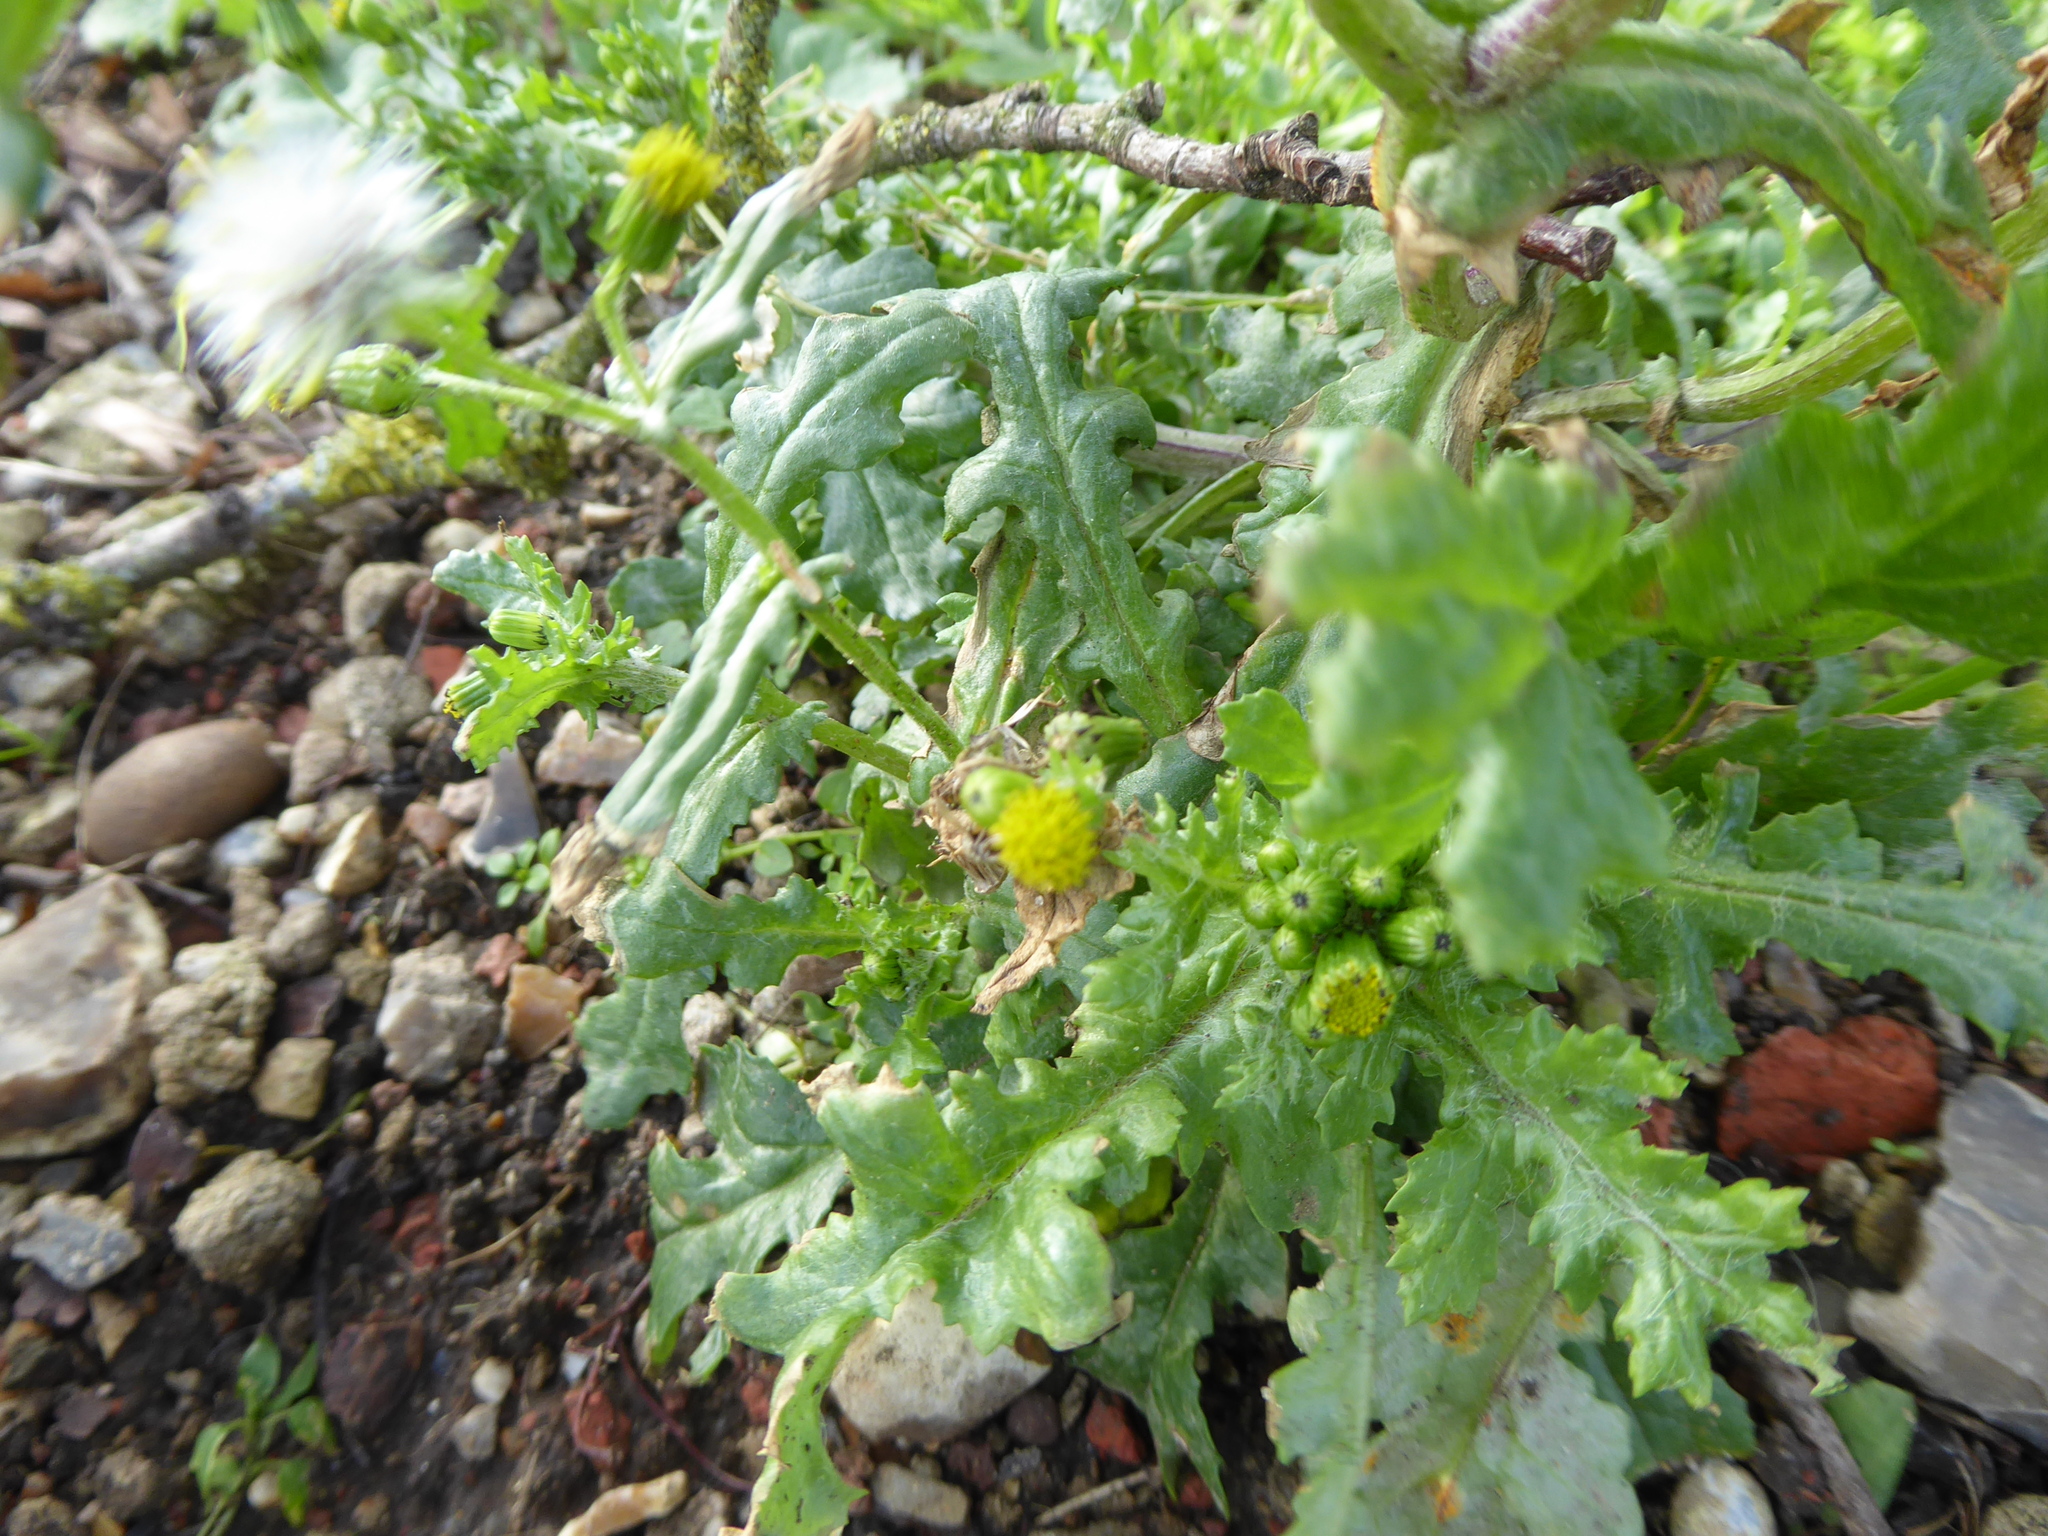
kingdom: Plantae
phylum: Tracheophyta
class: Magnoliopsida
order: Asterales
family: Asteraceae
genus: Senecio
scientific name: Senecio vulgaris
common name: Old-man-in-the-spring
